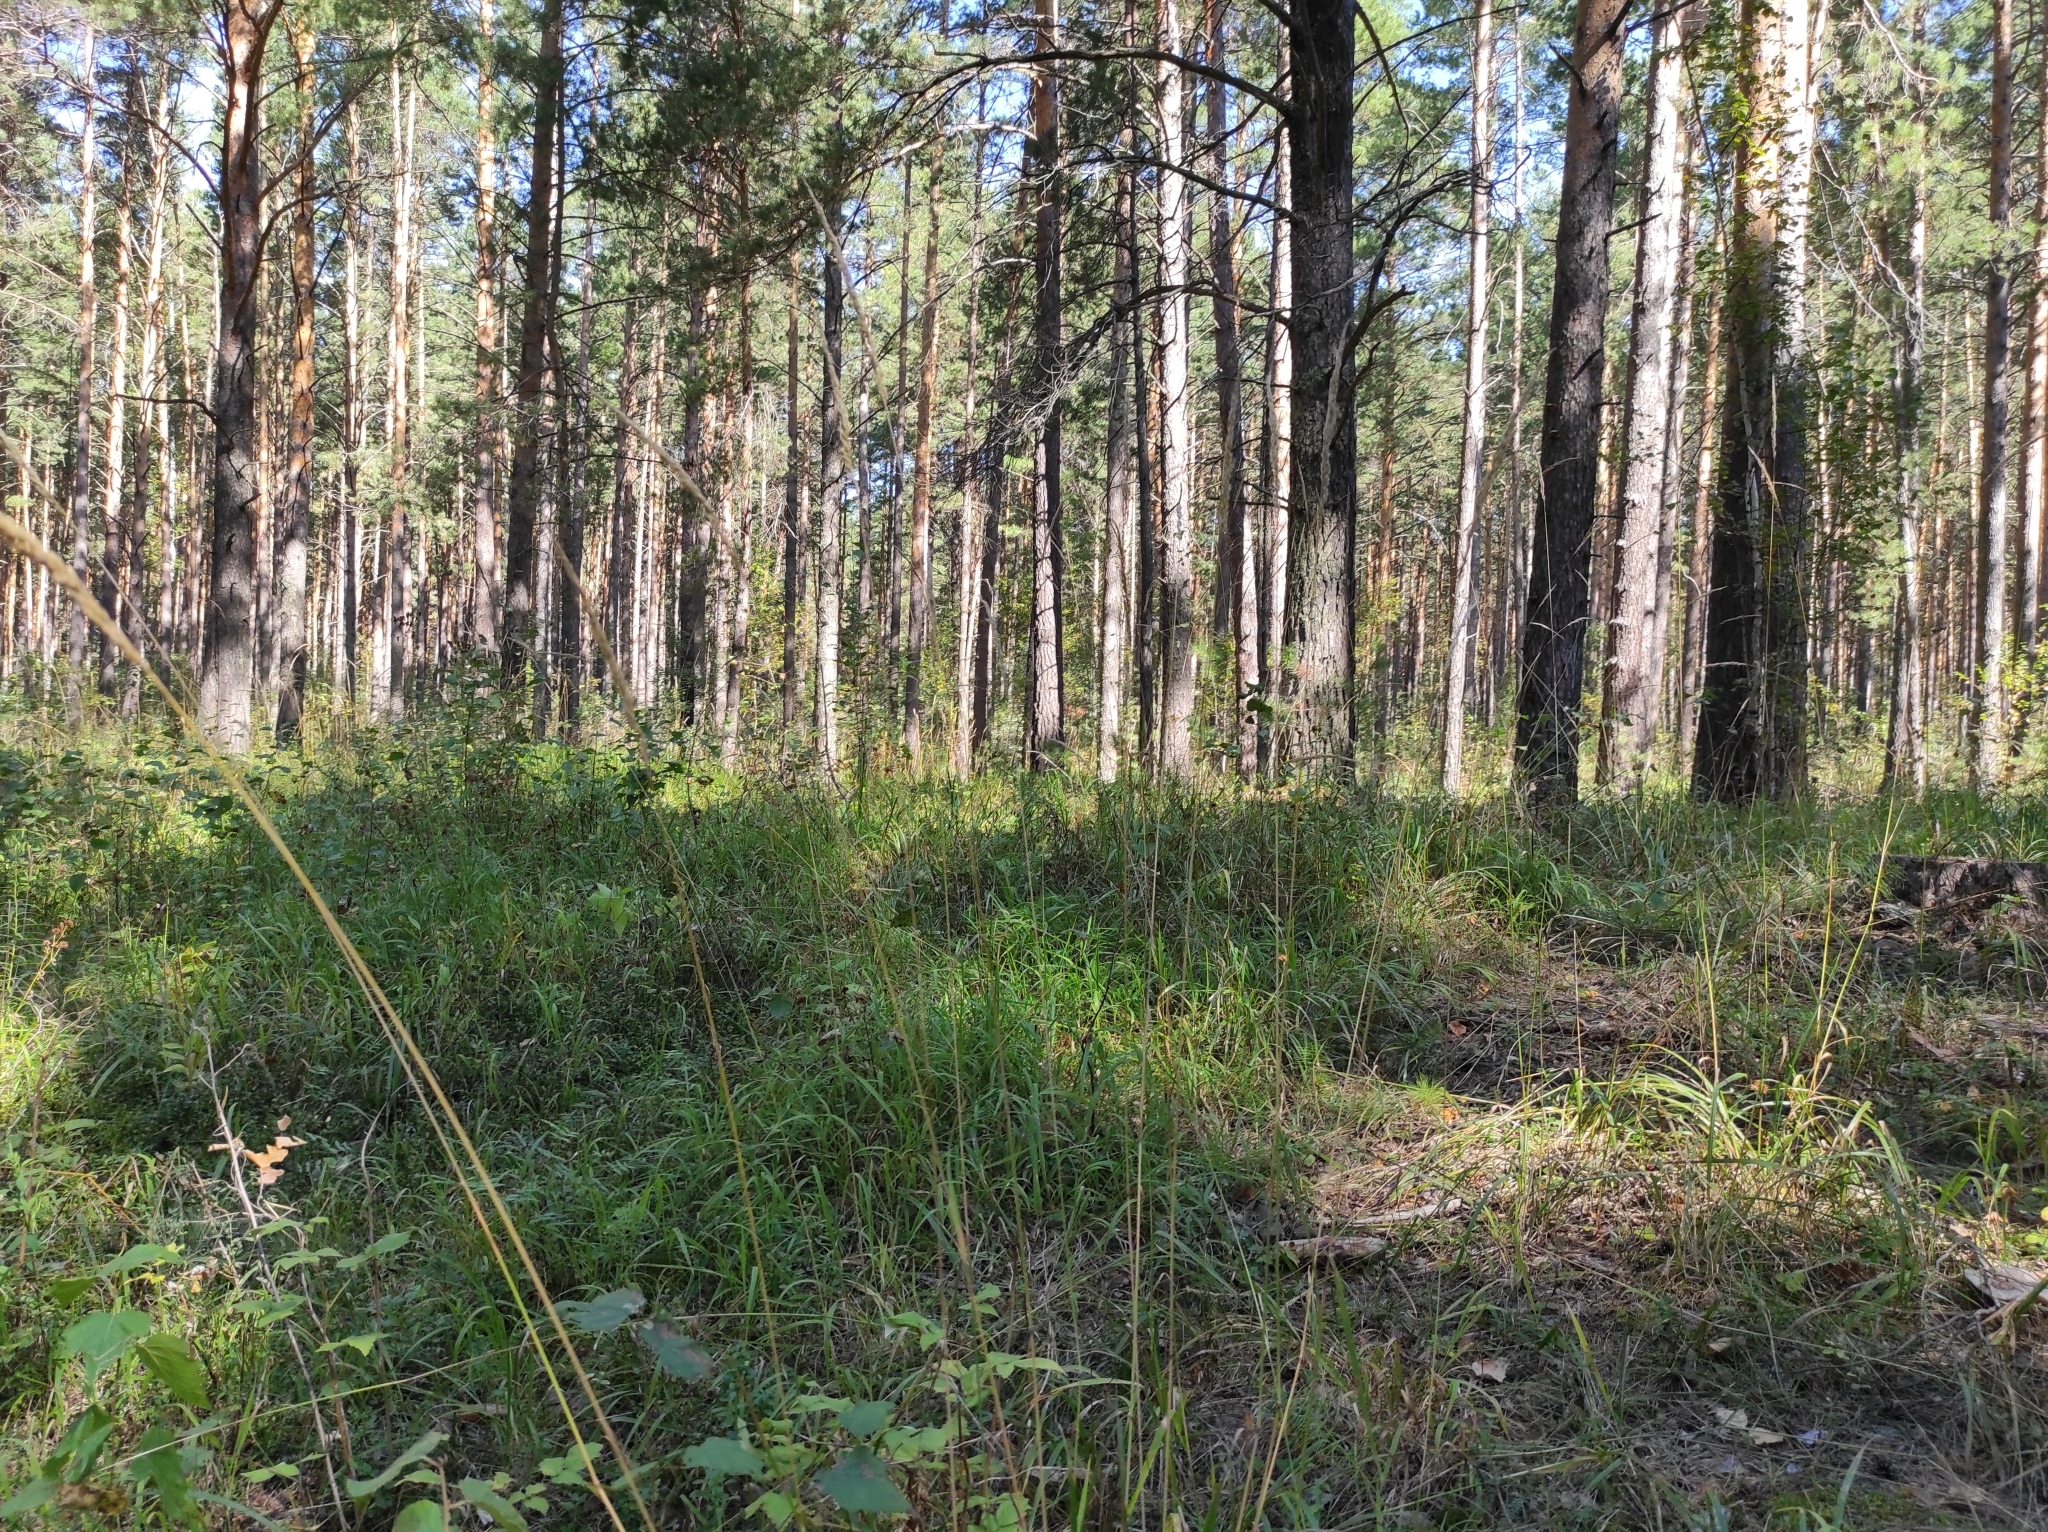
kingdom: Plantae
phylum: Tracheophyta
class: Pinopsida
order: Pinales
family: Pinaceae
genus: Pinus
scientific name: Pinus sylvestris
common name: Scots pine
